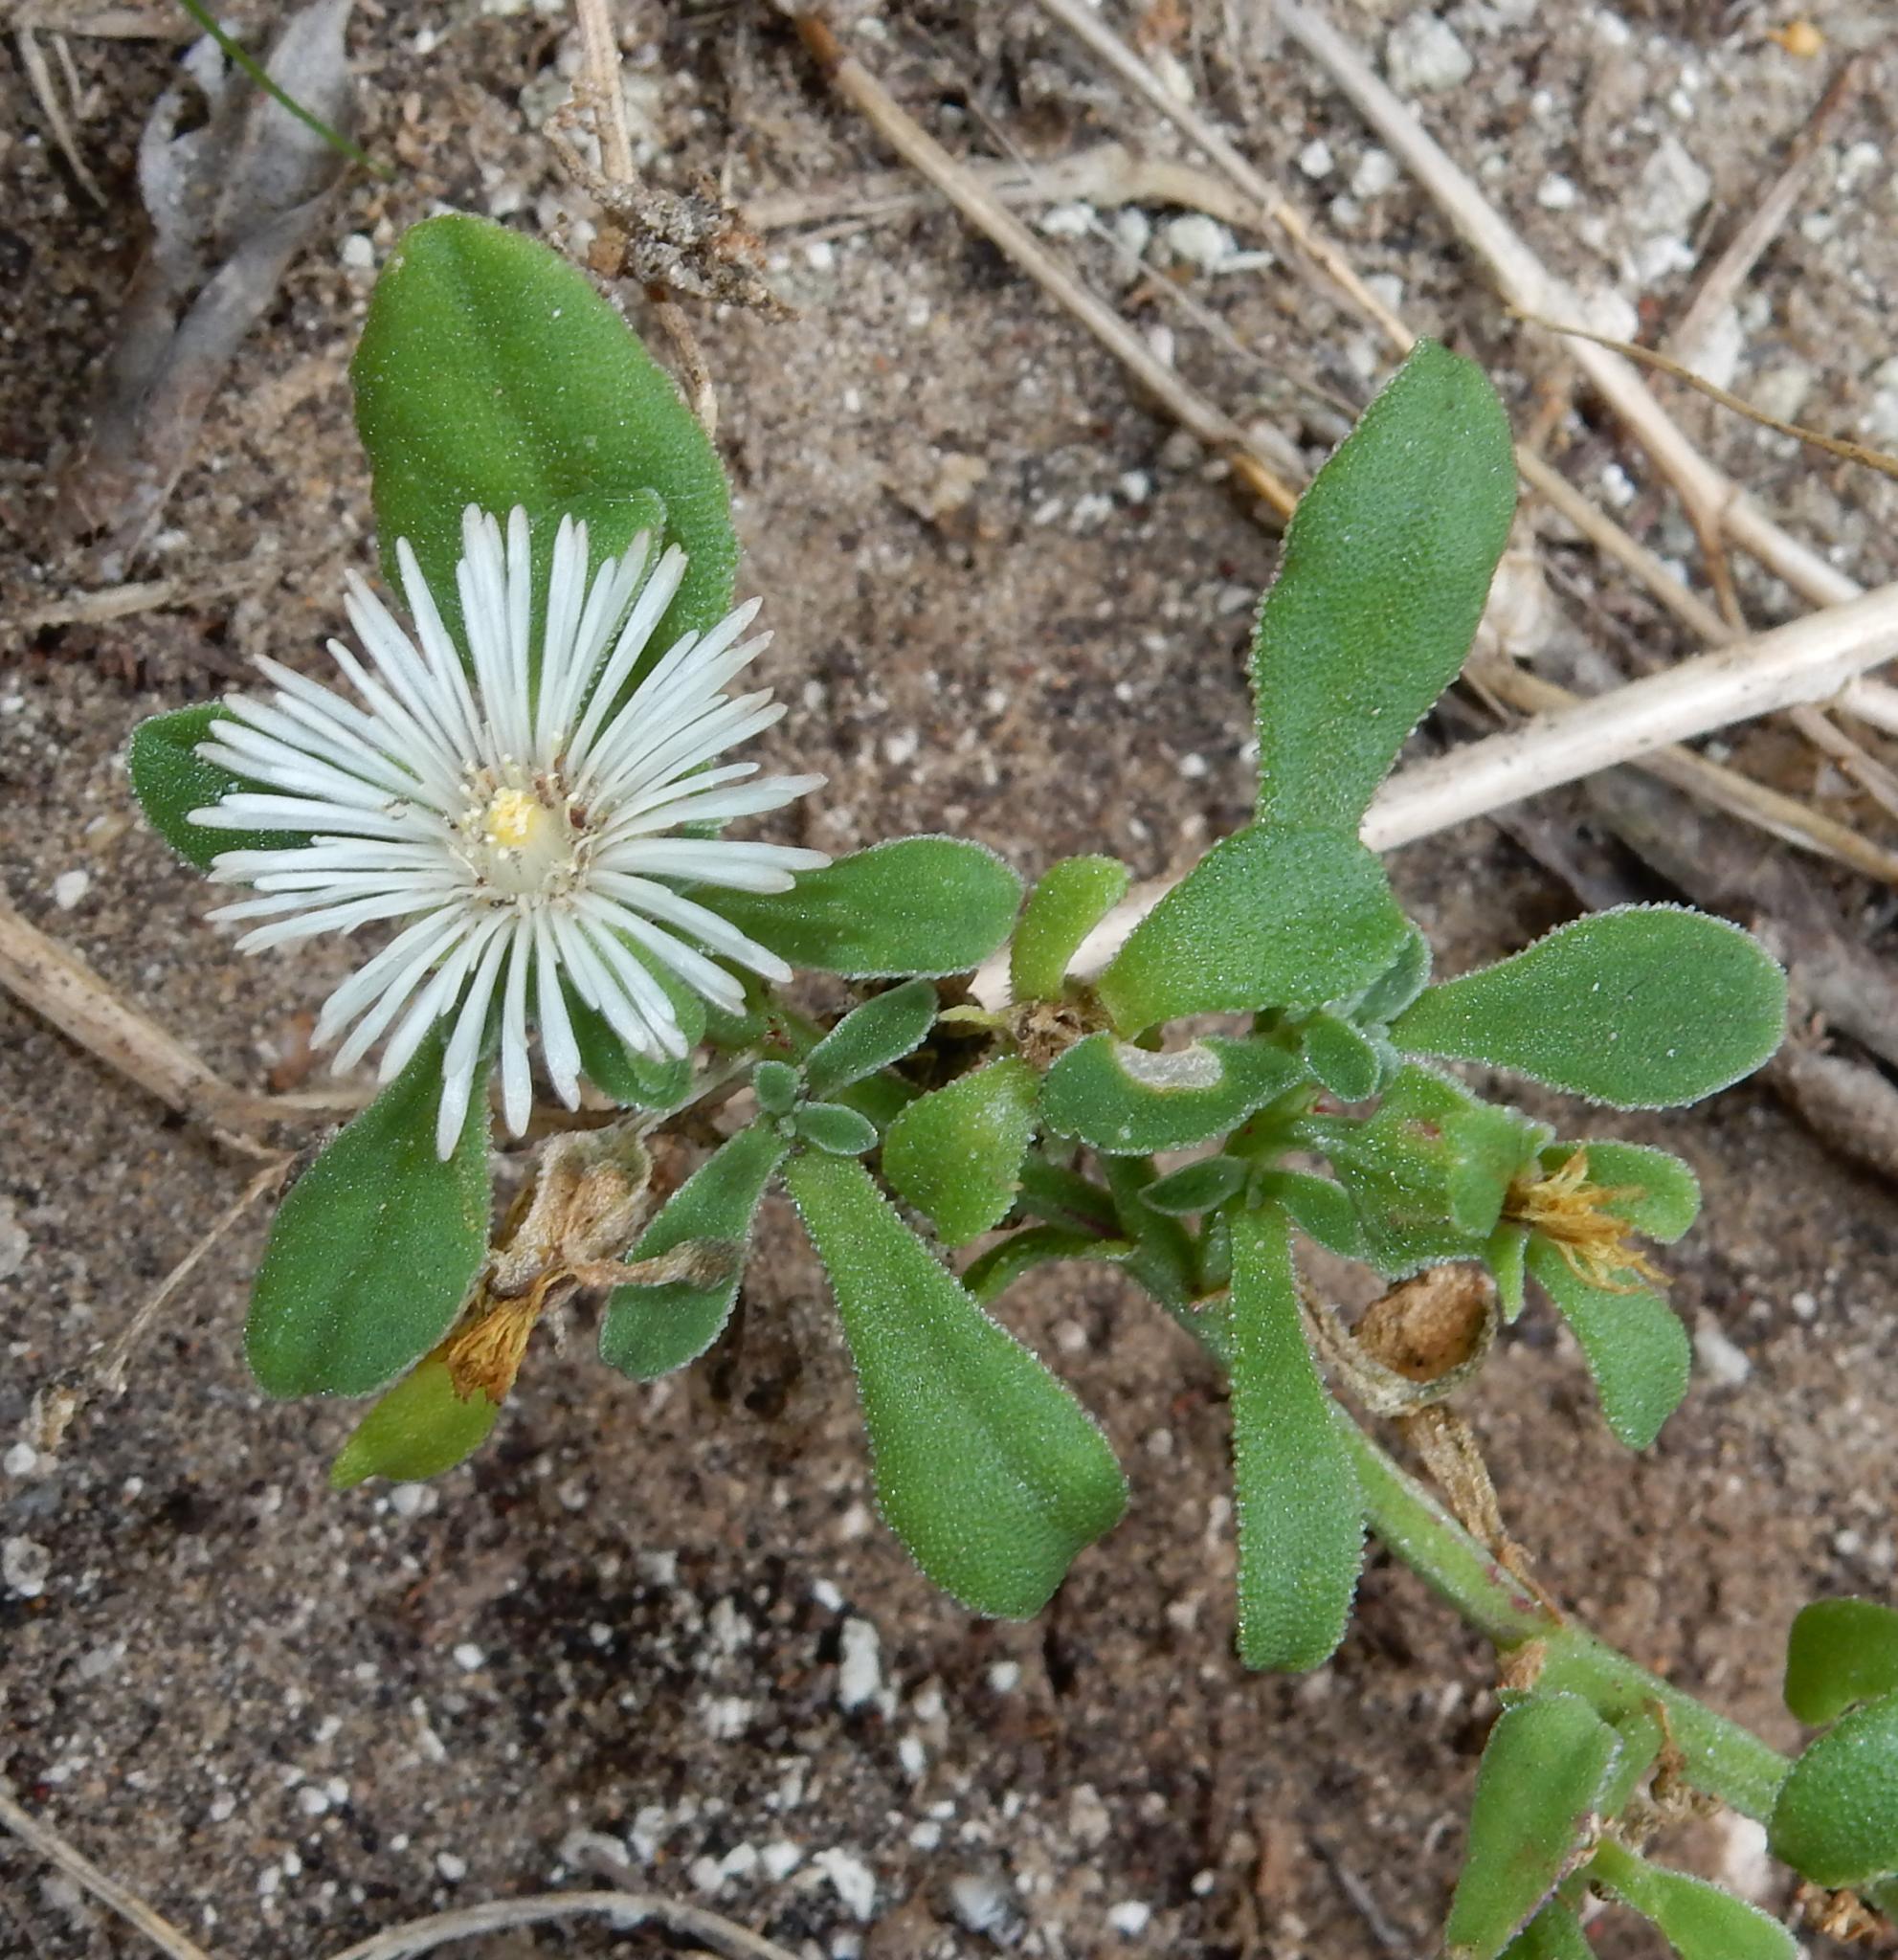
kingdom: Plantae
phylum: Tracheophyta
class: Magnoliopsida
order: Caryophyllales
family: Aizoaceae
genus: Mesembryanthemum
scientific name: Mesembryanthemum aitonis
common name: Angled iceplant
